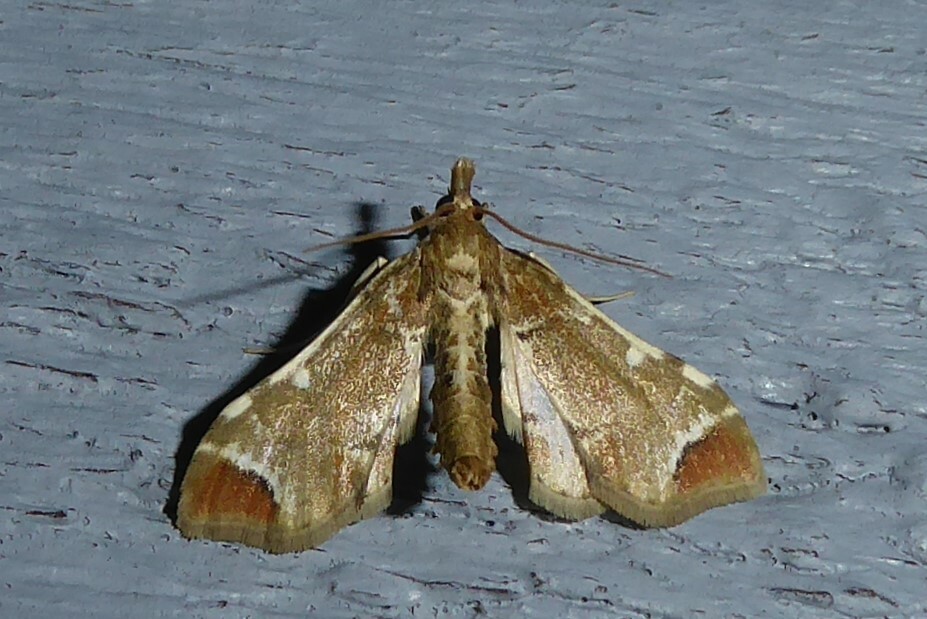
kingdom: Animalia
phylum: Arthropoda
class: Insecta
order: Lepidoptera
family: Crambidae
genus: Sceliodes
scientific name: Sceliodes cordalis
